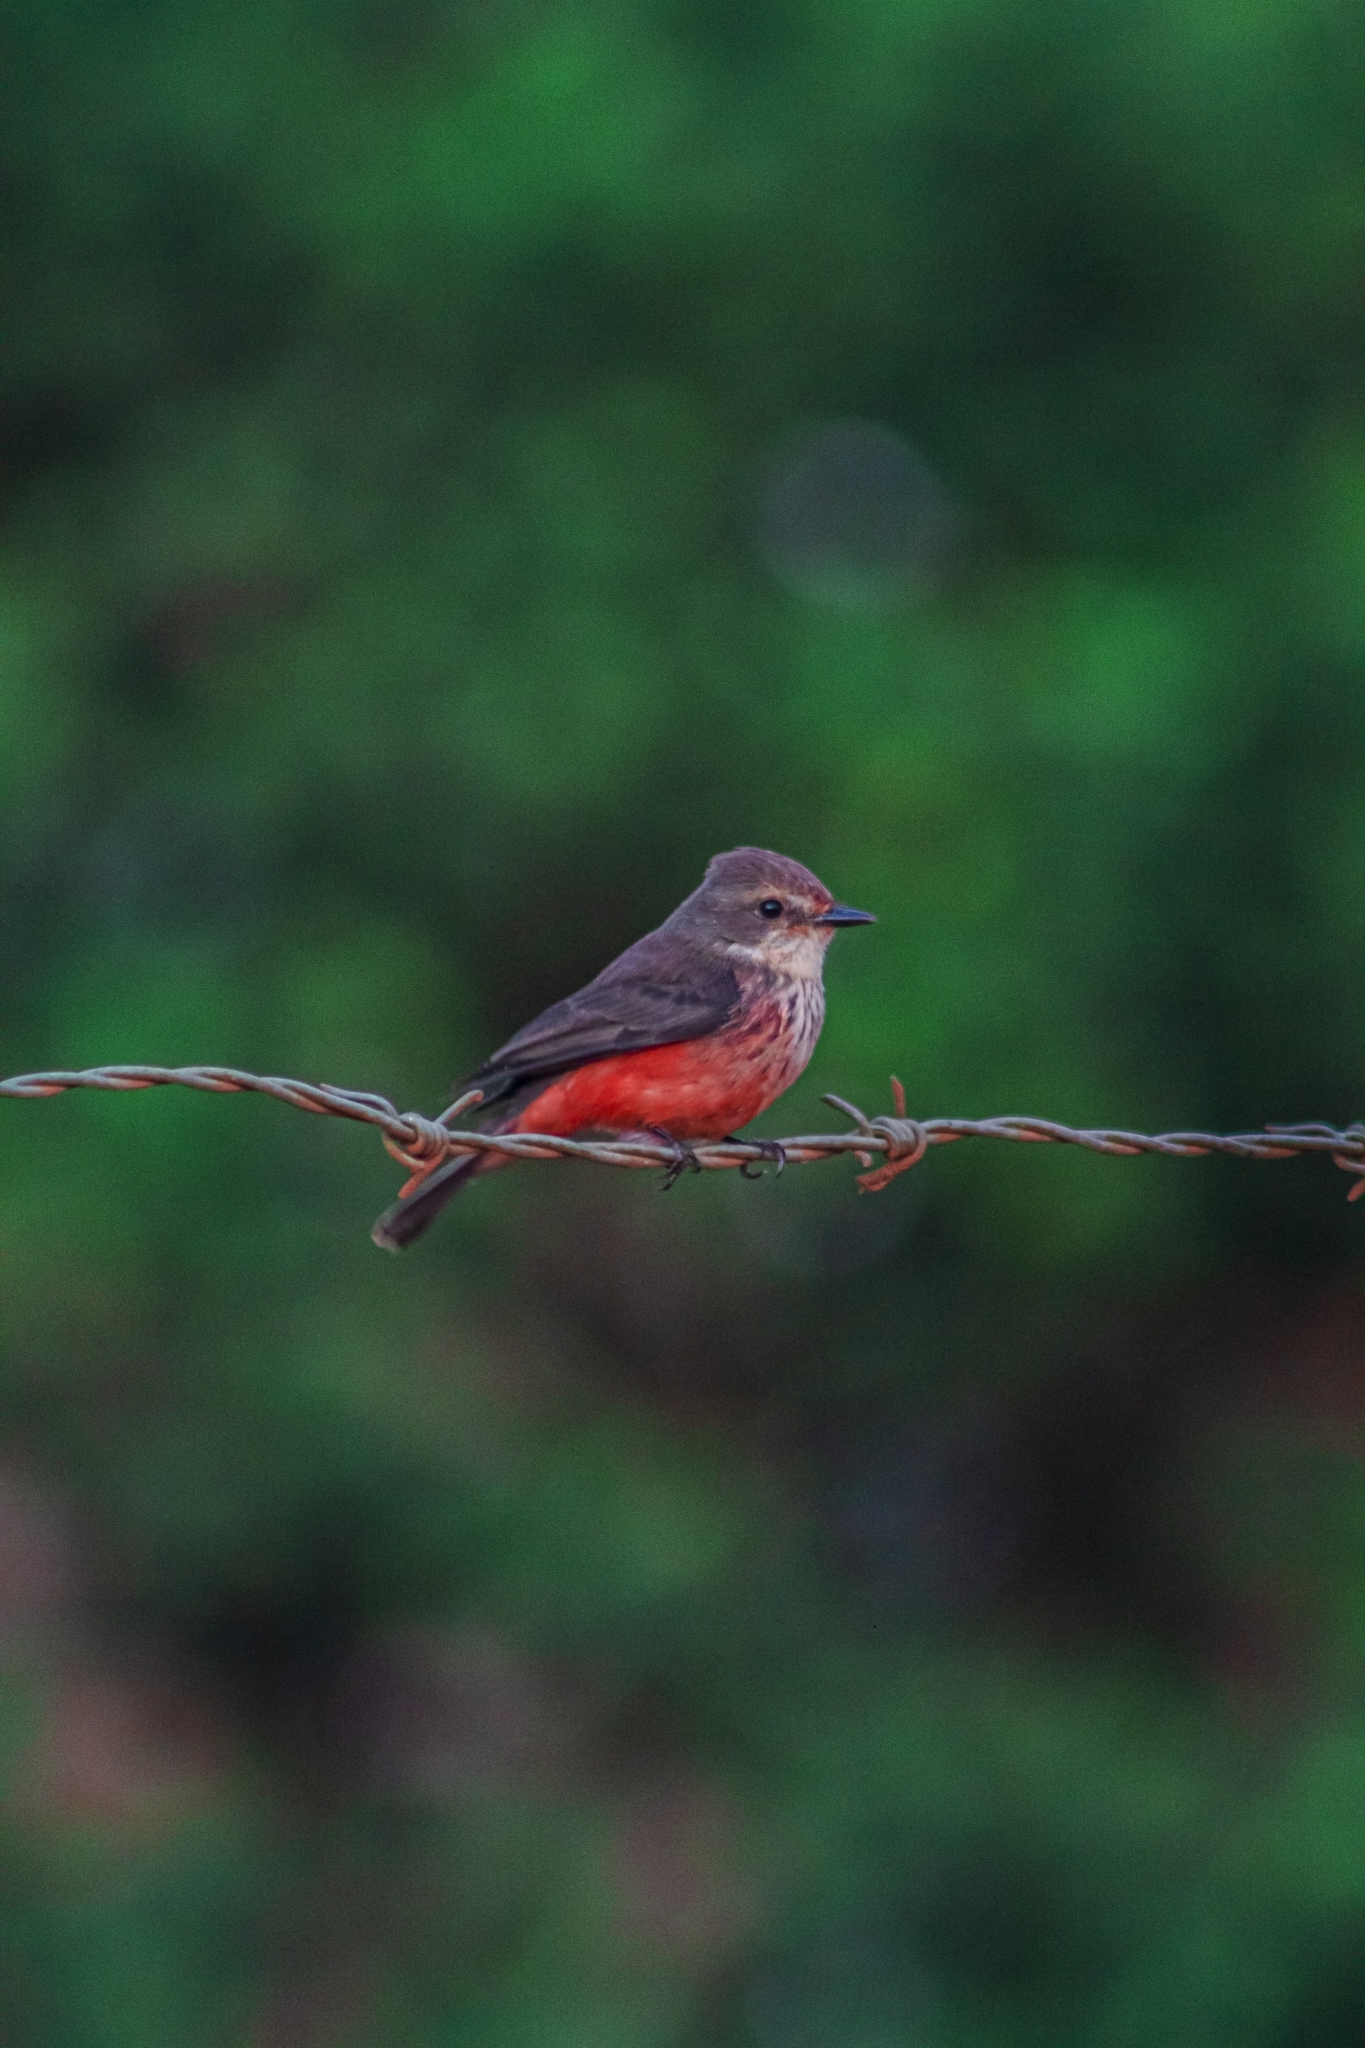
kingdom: Animalia
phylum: Chordata
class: Aves
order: Passeriformes
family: Tyrannidae
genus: Pyrocephalus
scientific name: Pyrocephalus rubinus
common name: Vermilion flycatcher
